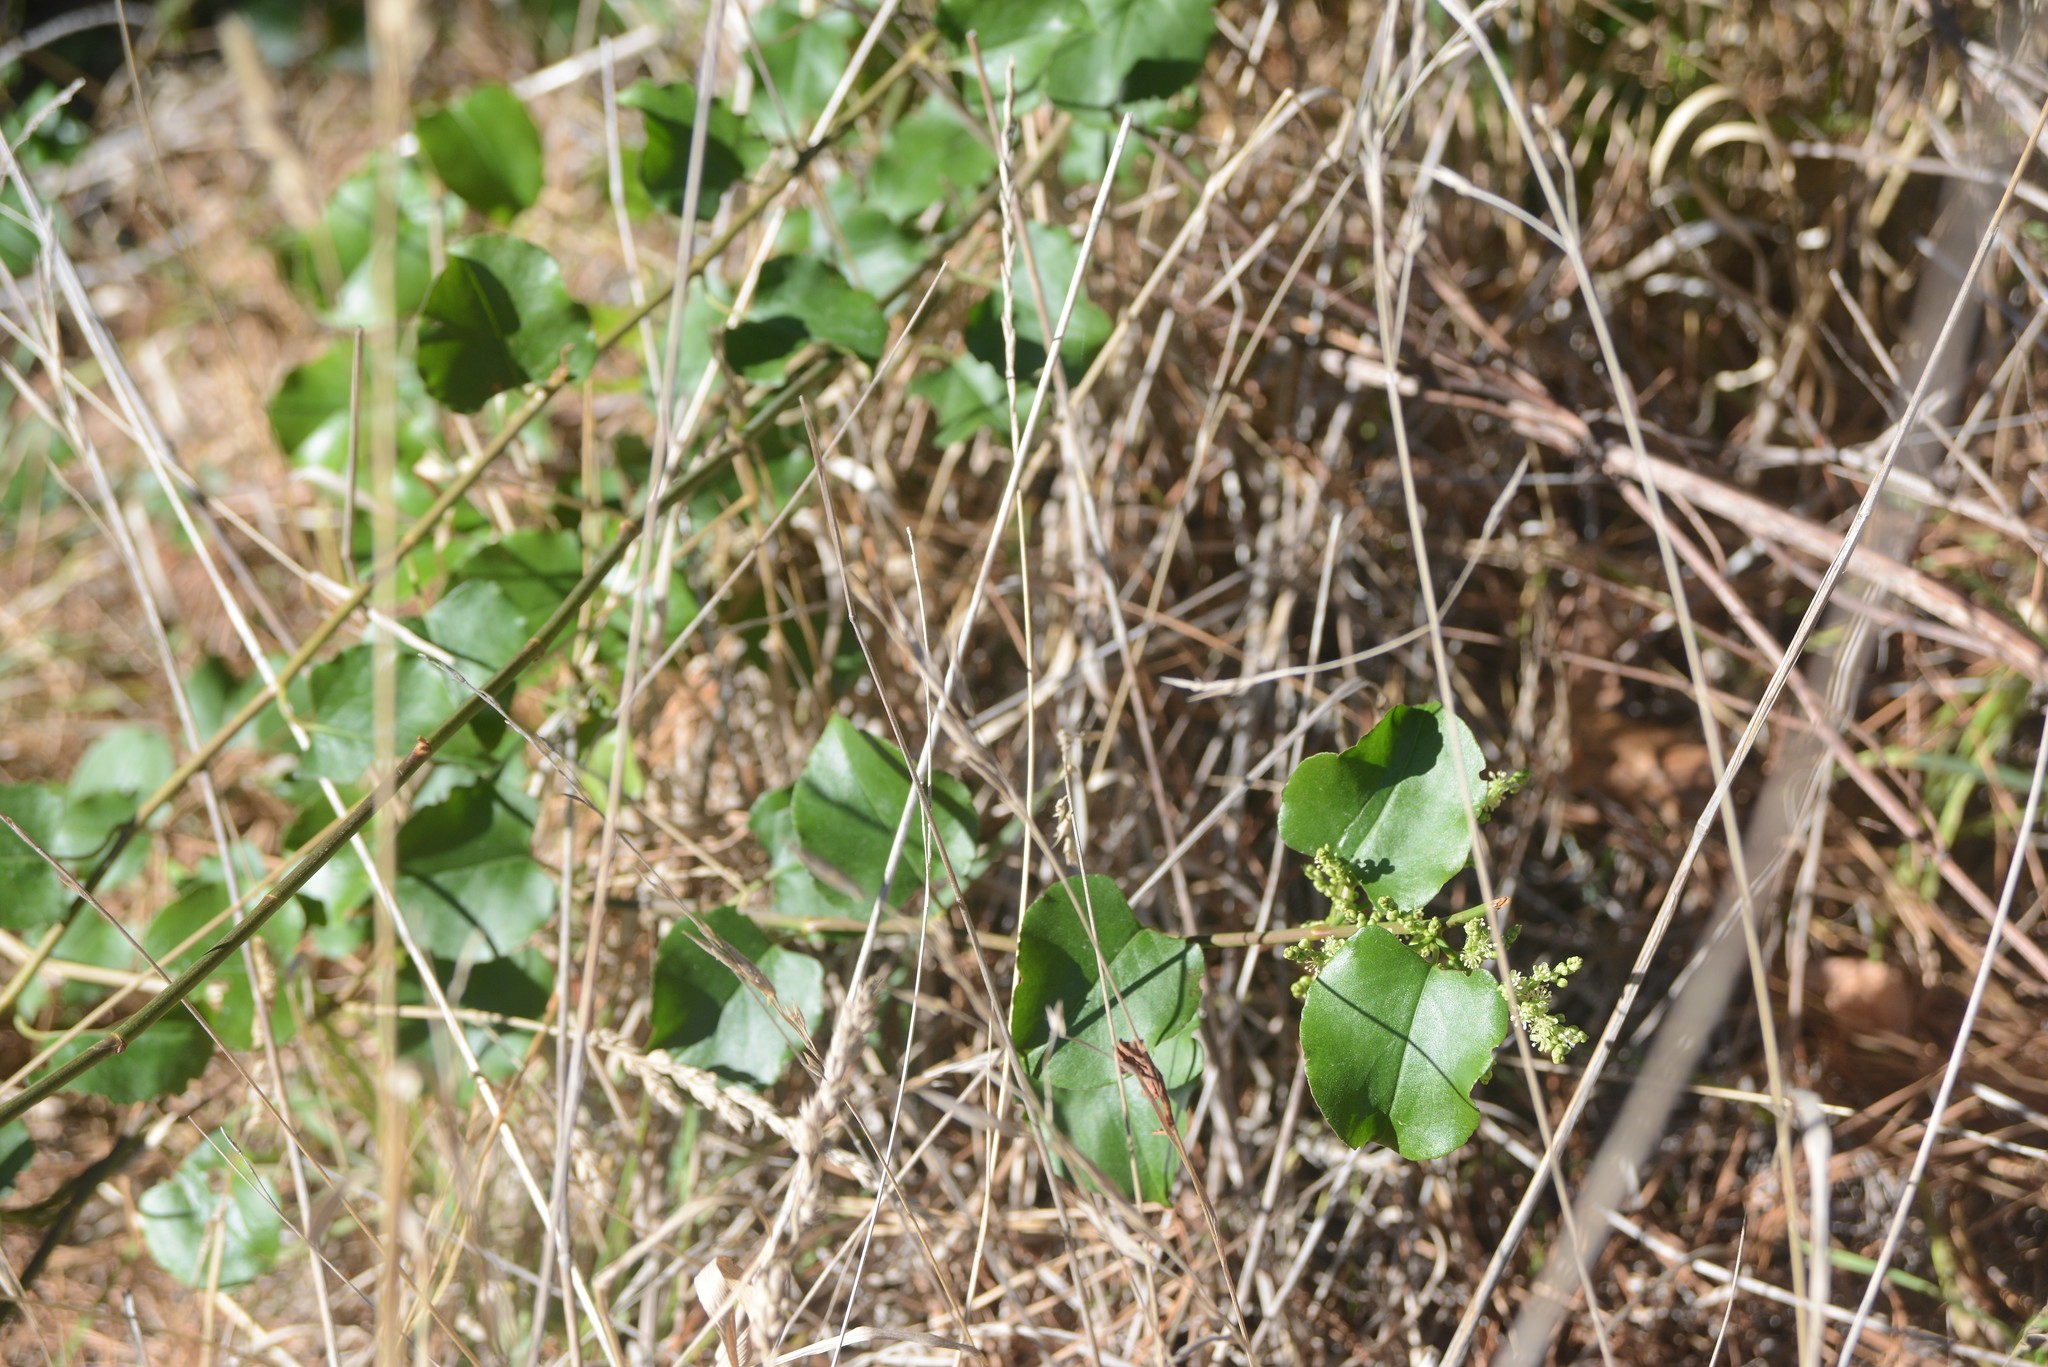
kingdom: Plantae
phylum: Tracheophyta
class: Magnoliopsida
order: Caryophyllales
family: Polygonaceae
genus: Muehlenbeckia
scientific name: Muehlenbeckia australis
